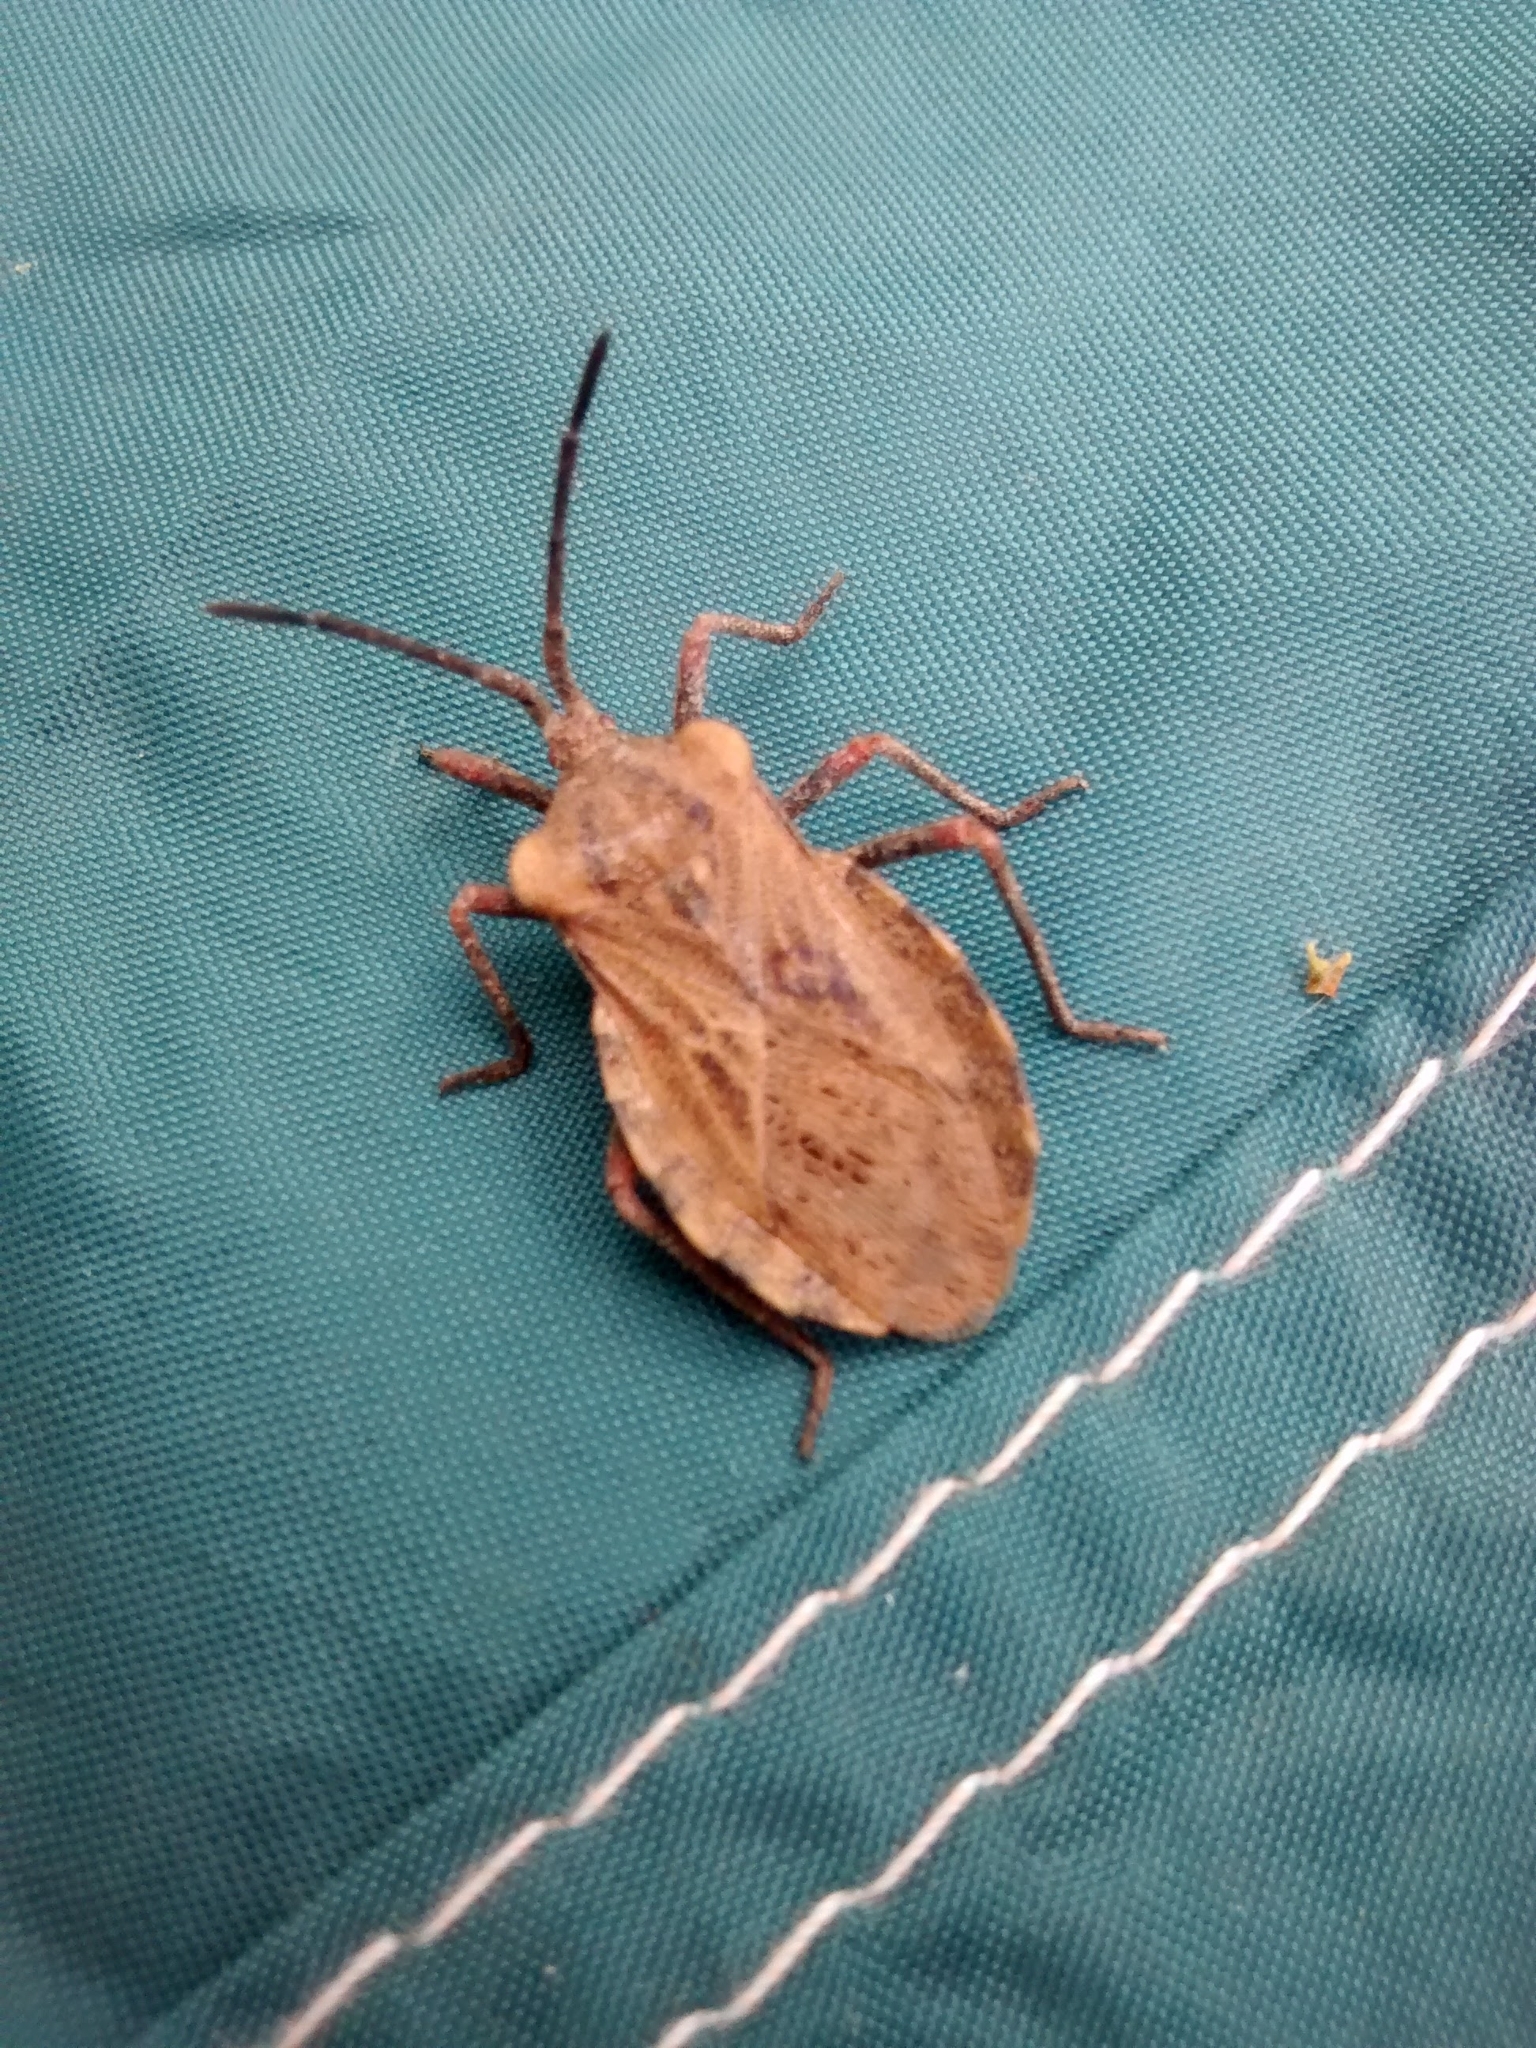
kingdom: Animalia
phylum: Arthropoda
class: Insecta
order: Hemiptera
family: Coreidae
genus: Spartocera
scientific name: Spartocera fusca
